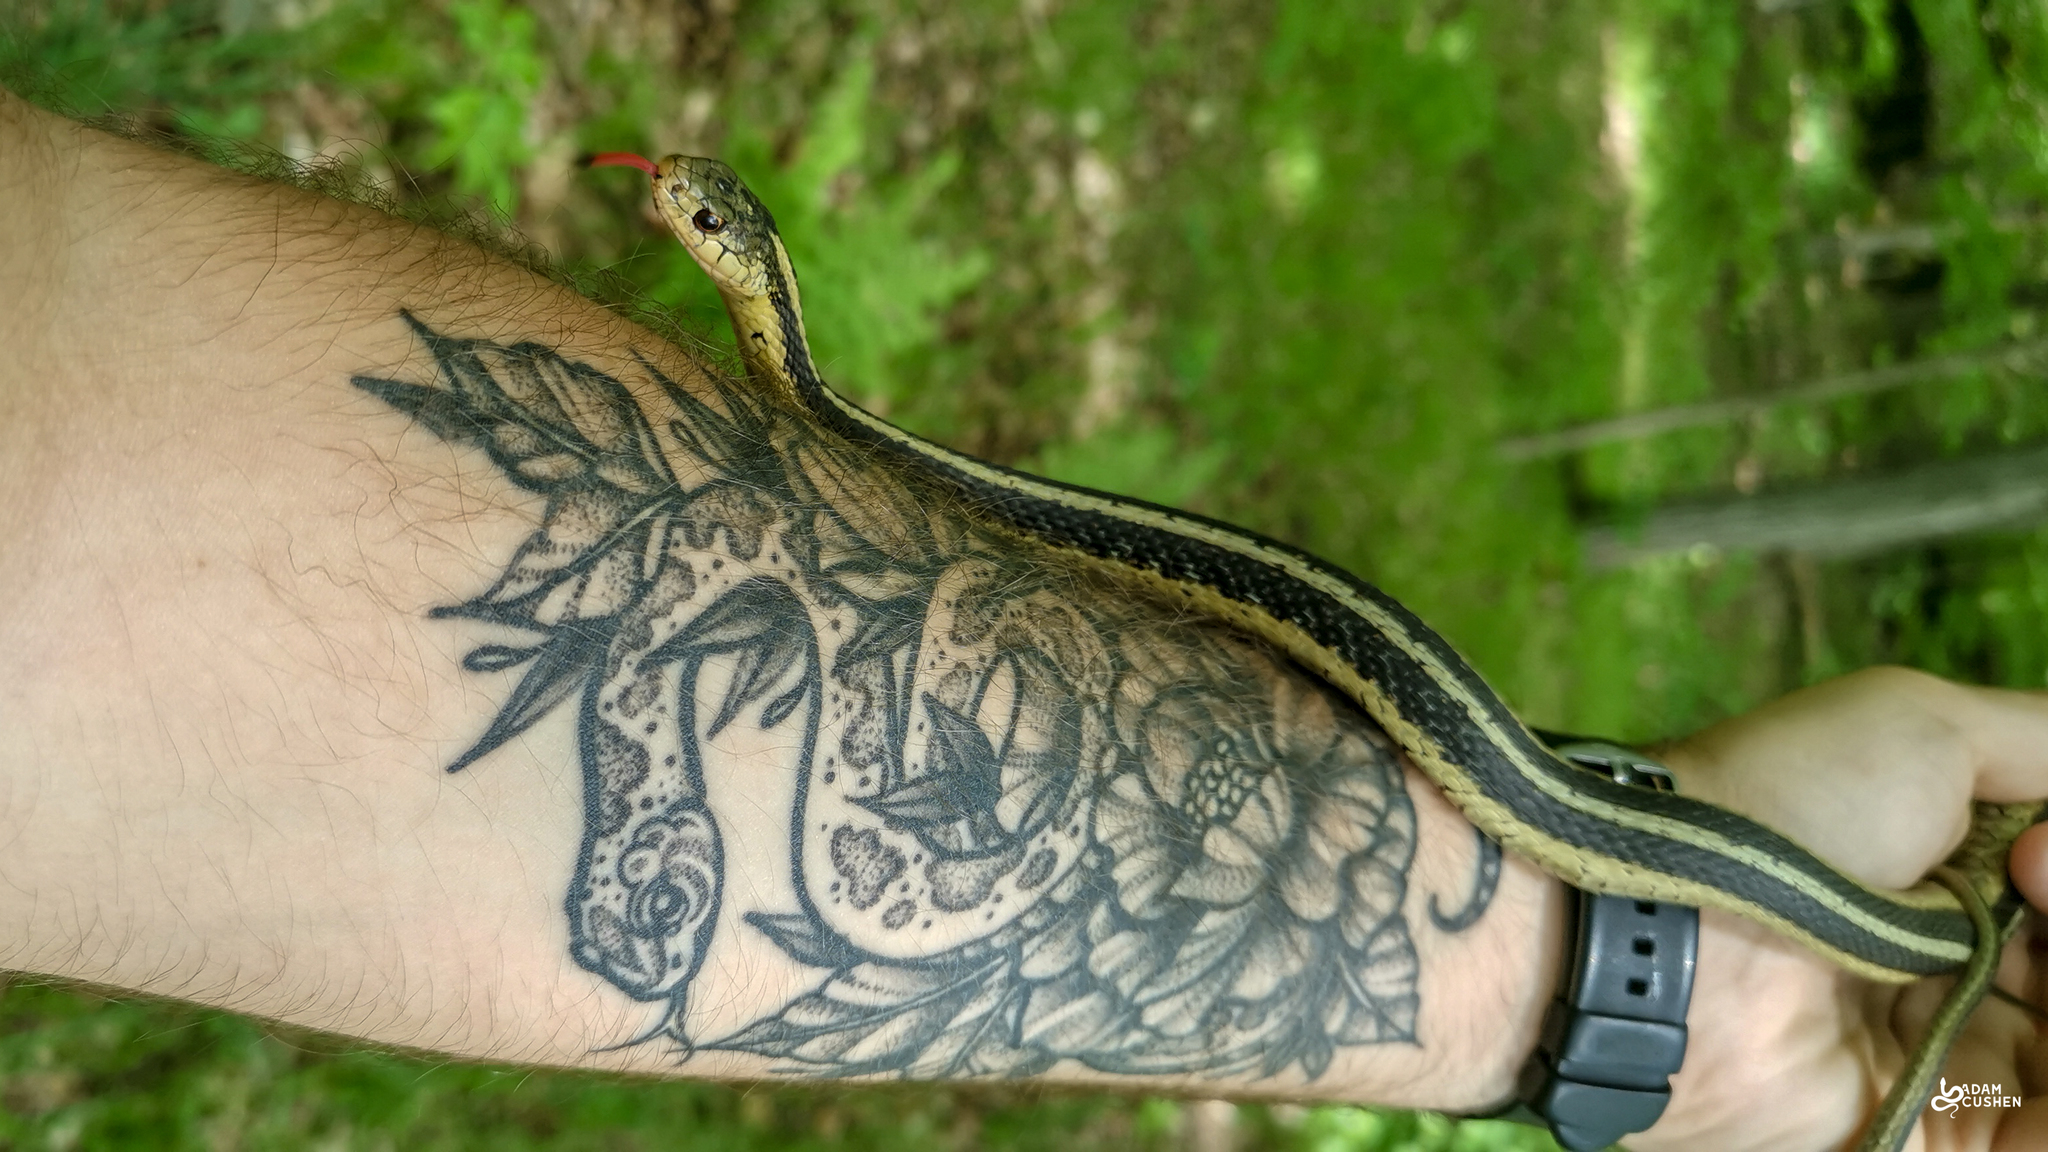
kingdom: Animalia
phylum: Chordata
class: Squamata
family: Colubridae
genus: Thamnophis
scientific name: Thamnophis sirtalis
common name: Common garter snake
